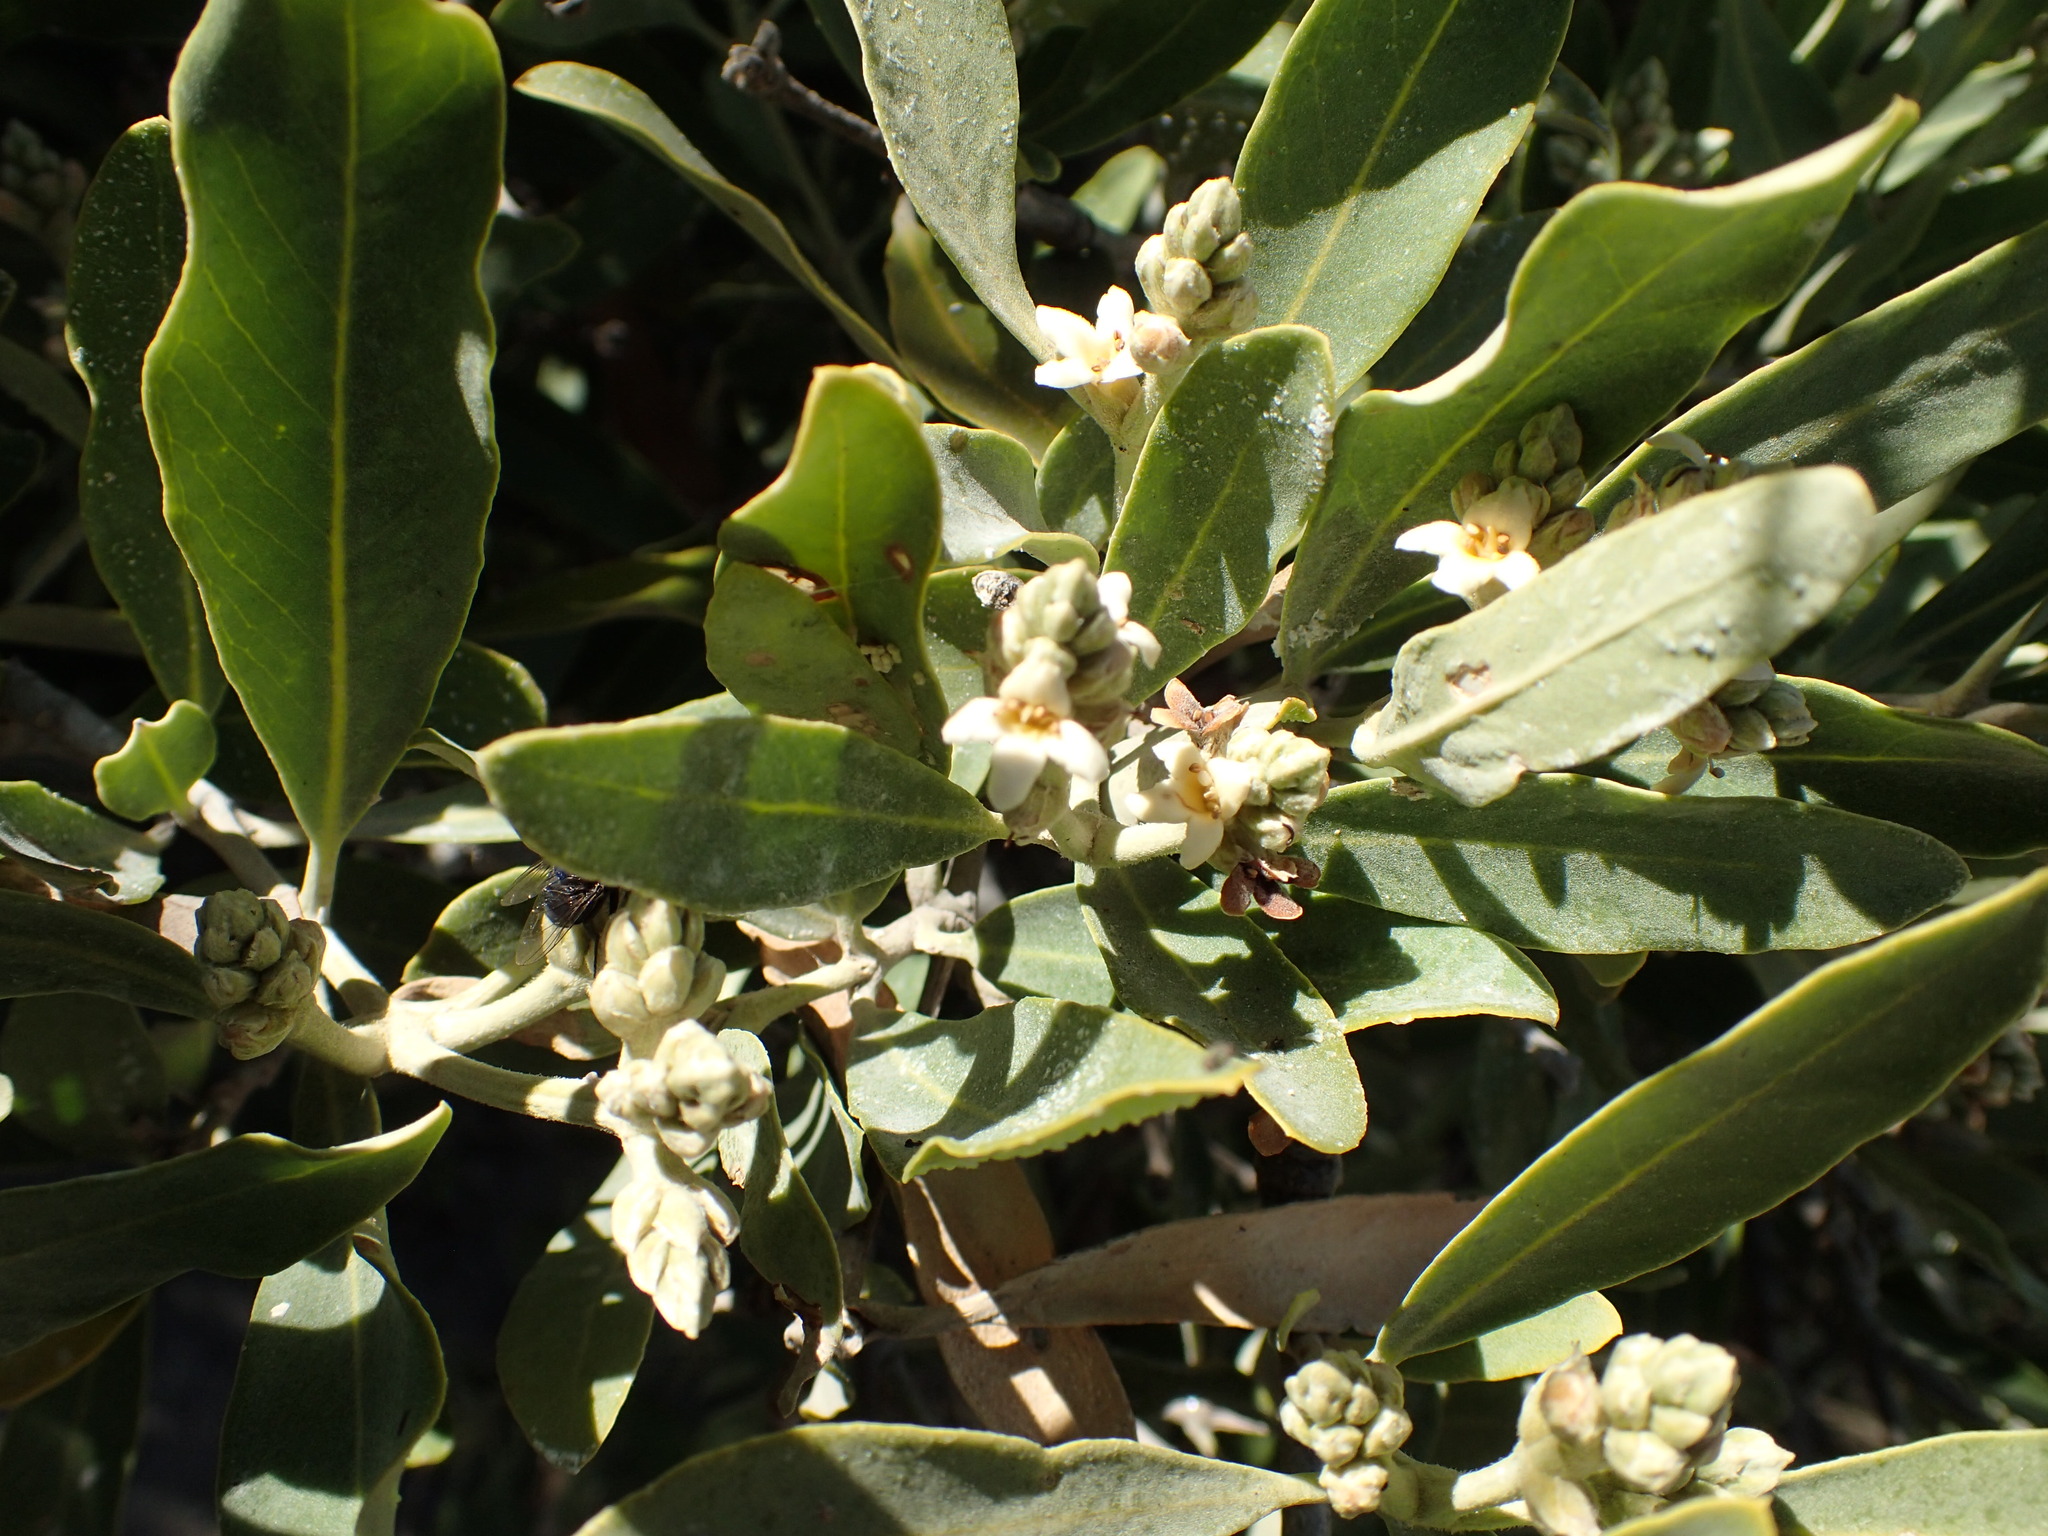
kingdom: Plantae
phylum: Tracheophyta
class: Magnoliopsida
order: Lamiales
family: Acanthaceae
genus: Avicennia
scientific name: Avicennia germinans
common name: Black mangrove
